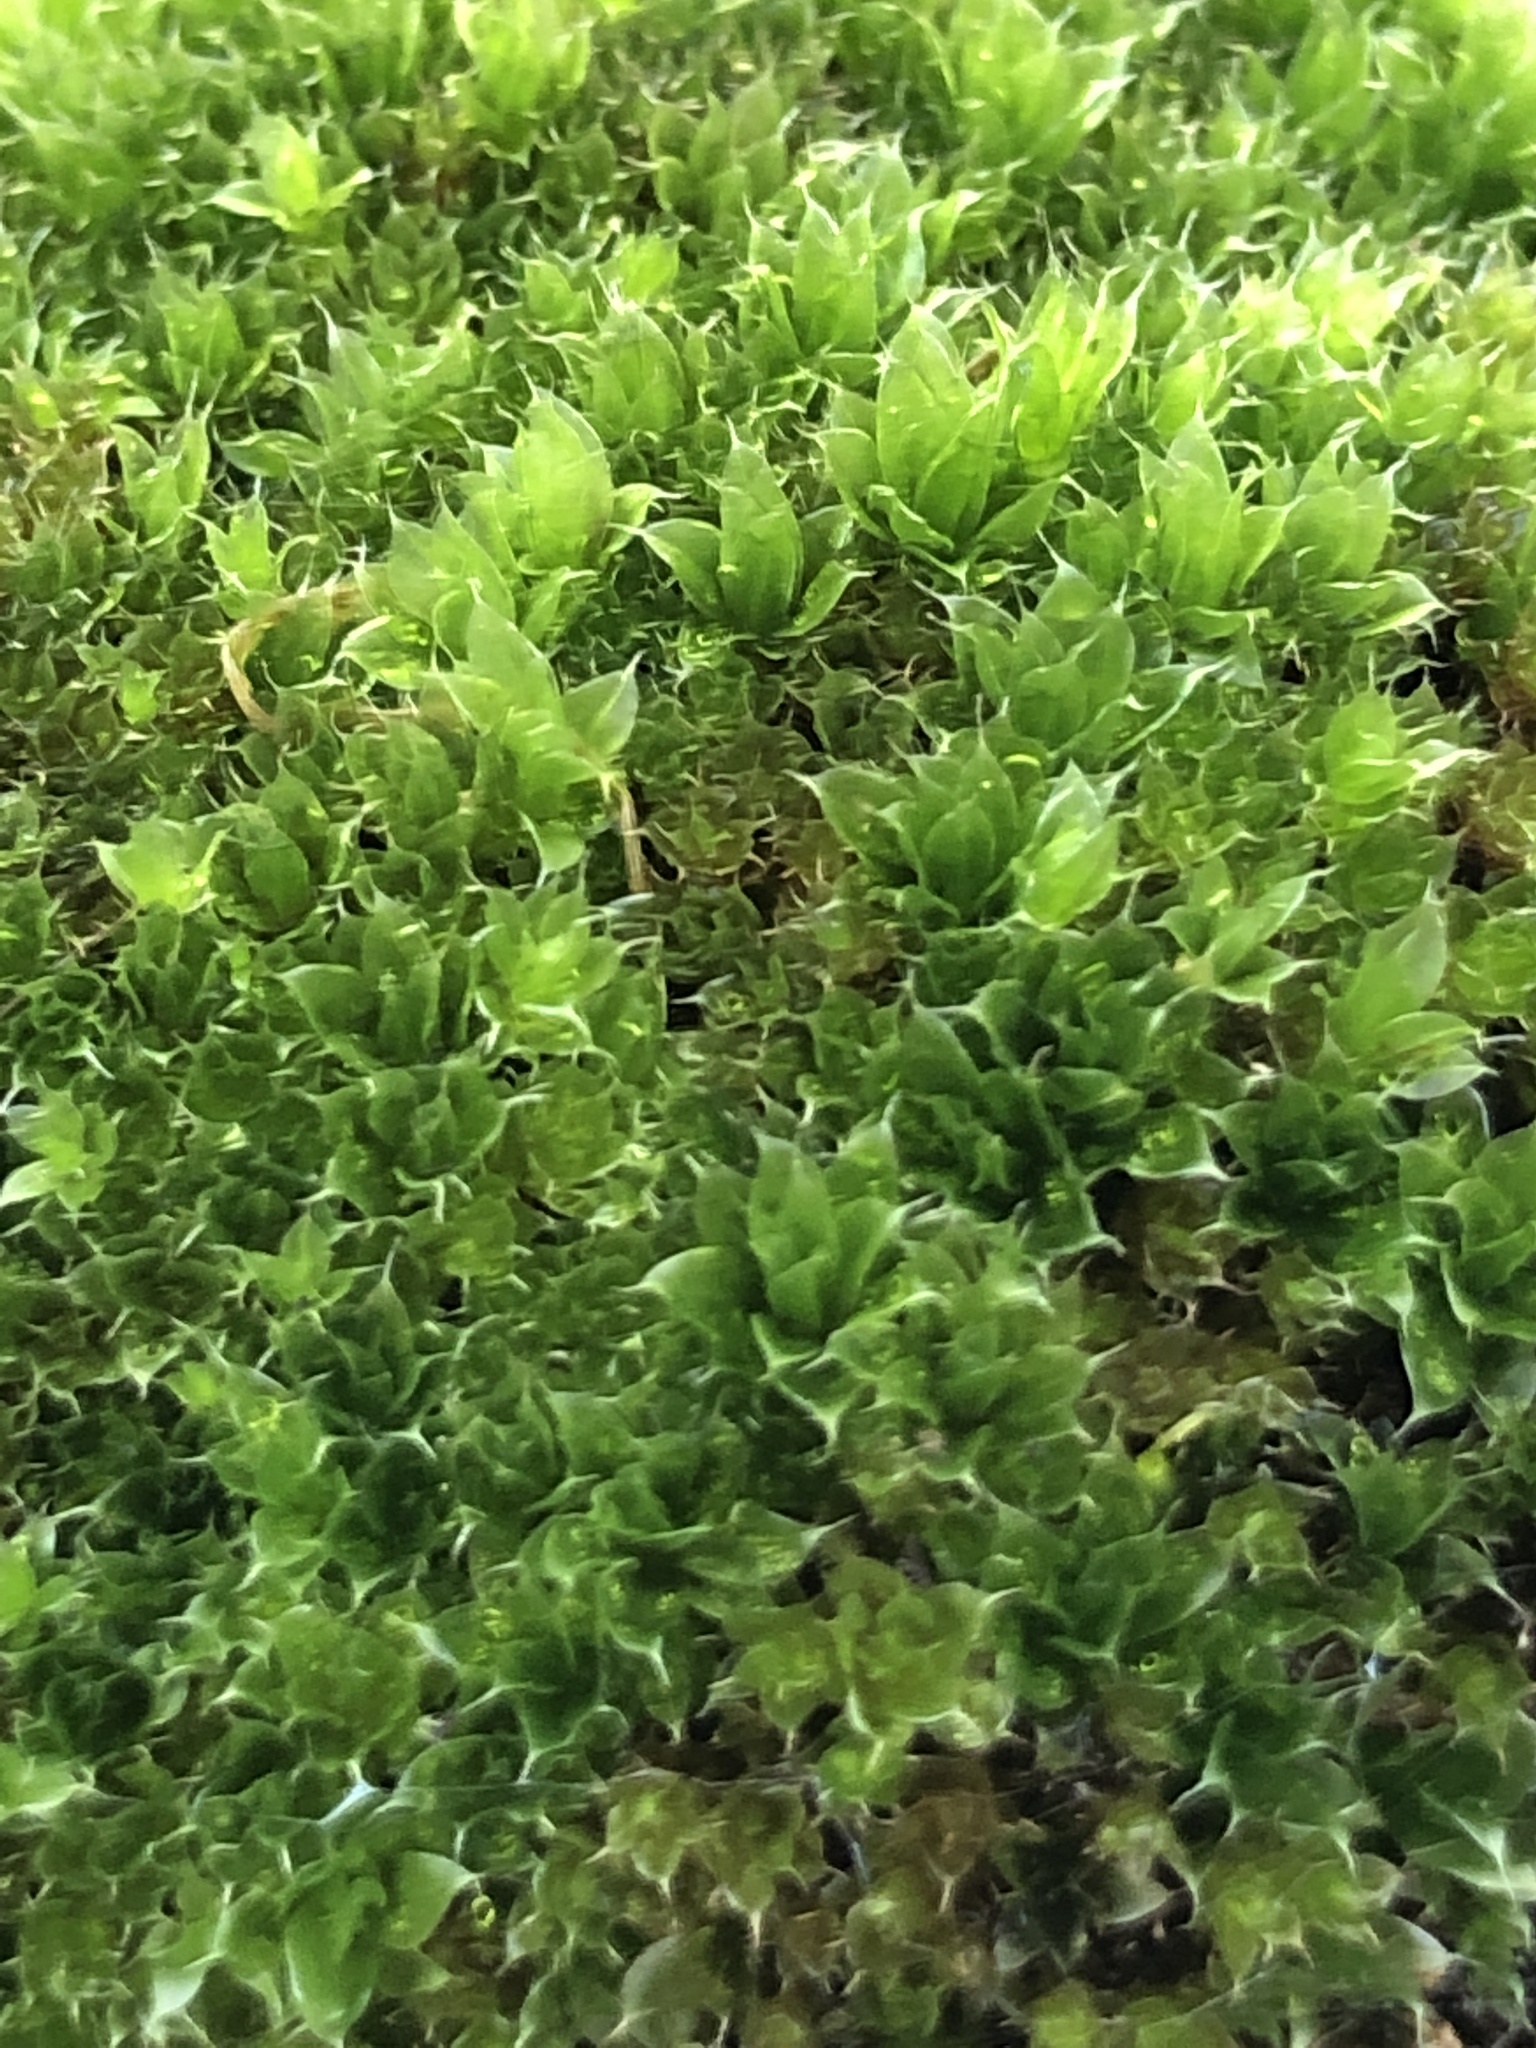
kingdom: Plantae
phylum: Bryophyta
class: Bryopsida
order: Bryales
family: Bryaceae
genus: Rosulabryum
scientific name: Rosulabryum capillare
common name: Capillary thread-moss
